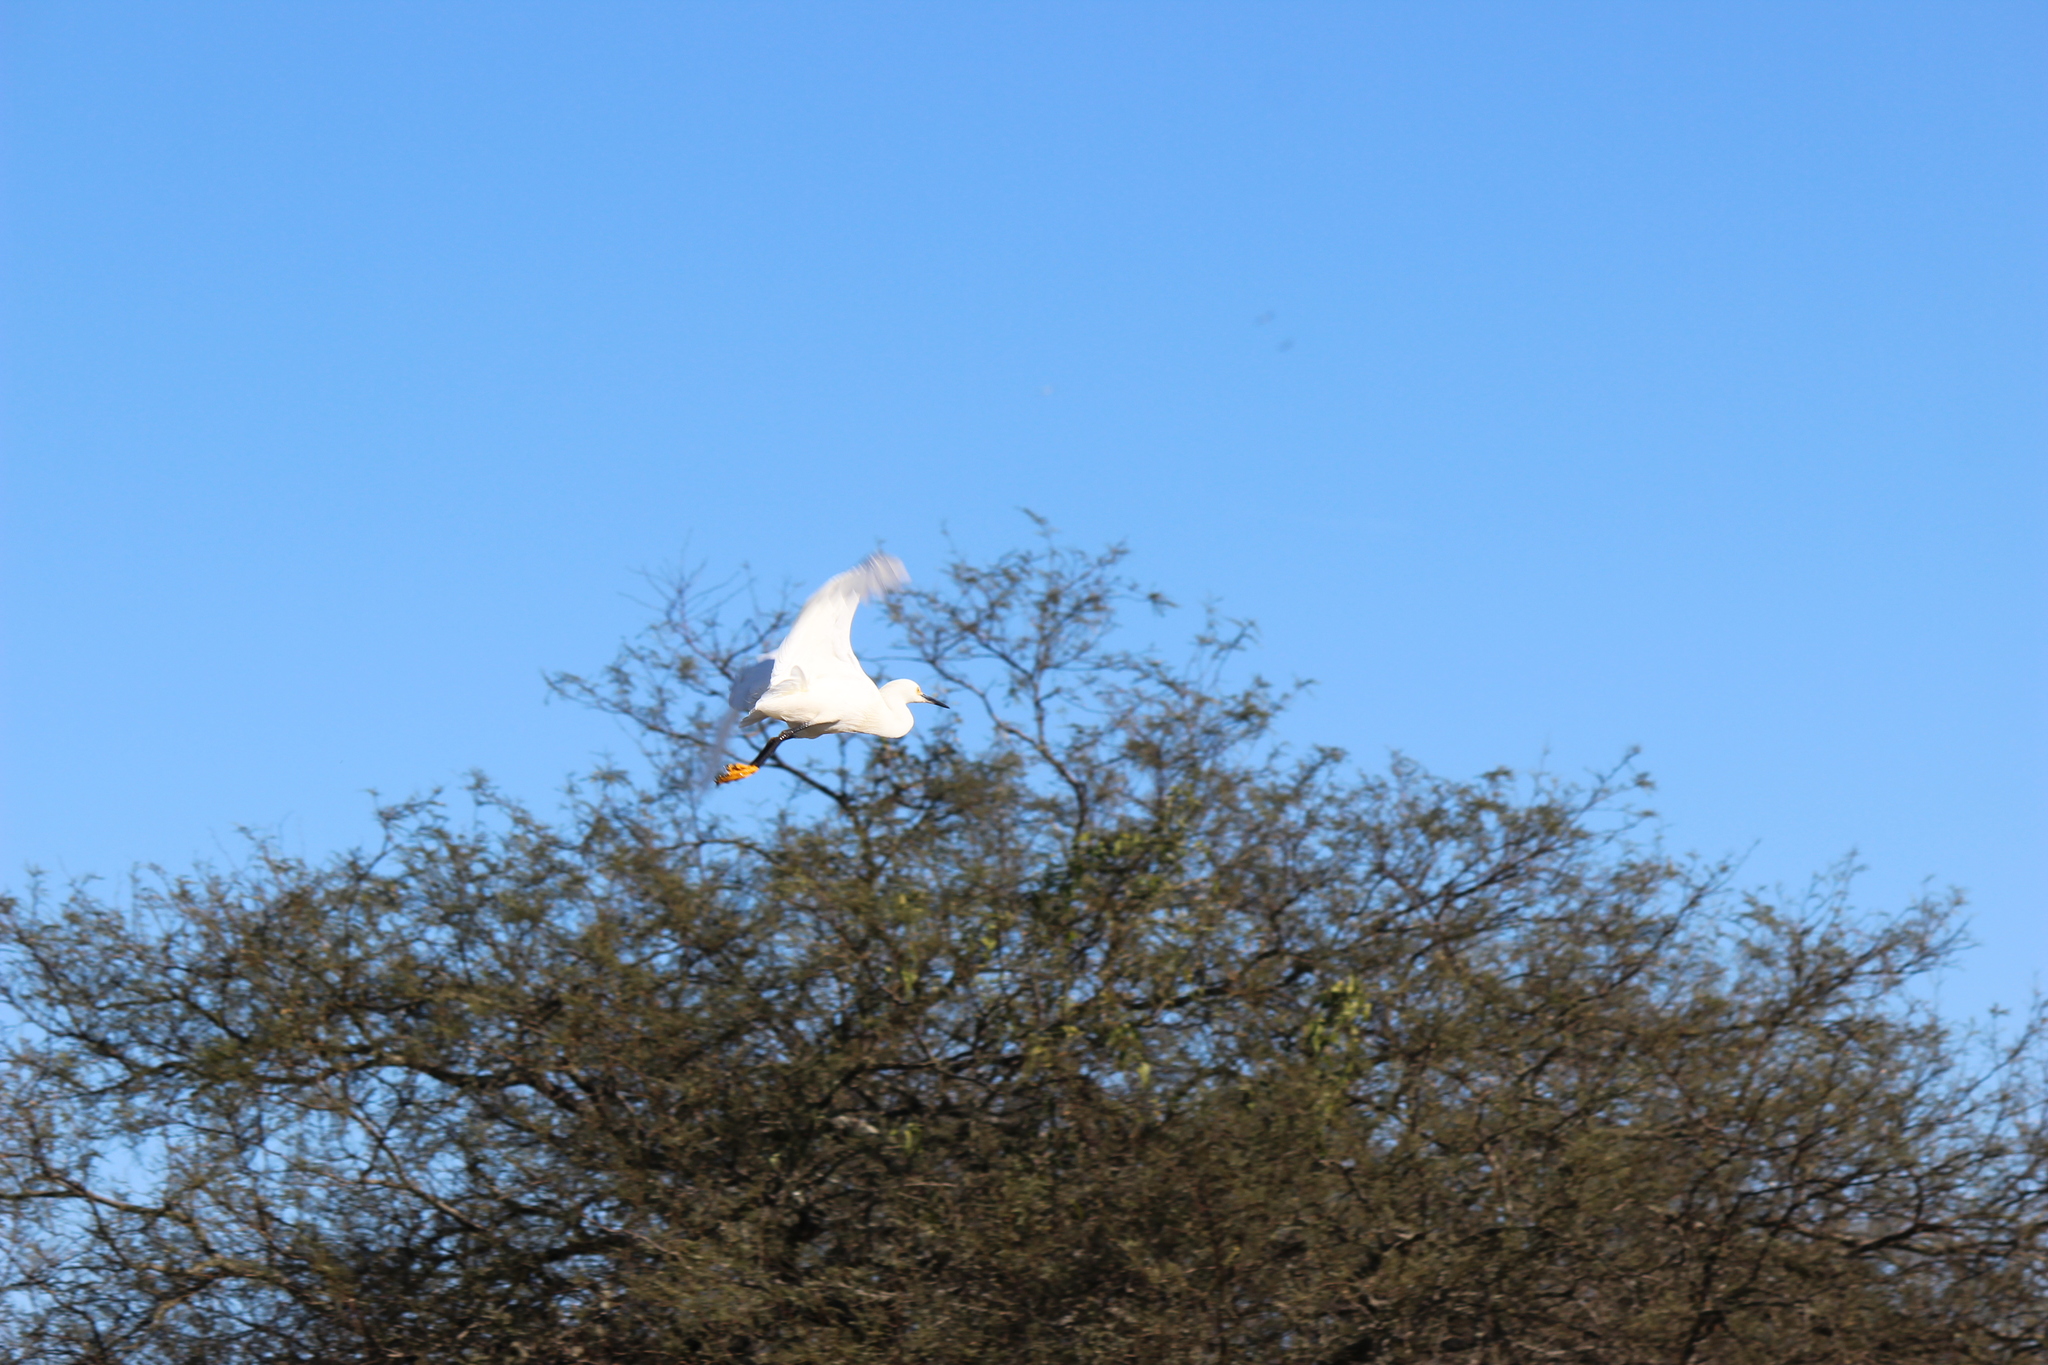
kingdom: Animalia
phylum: Chordata
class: Aves
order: Pelecaniformes
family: Ardeidae
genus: Egretta
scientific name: Egretta thula
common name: Snowy egret
